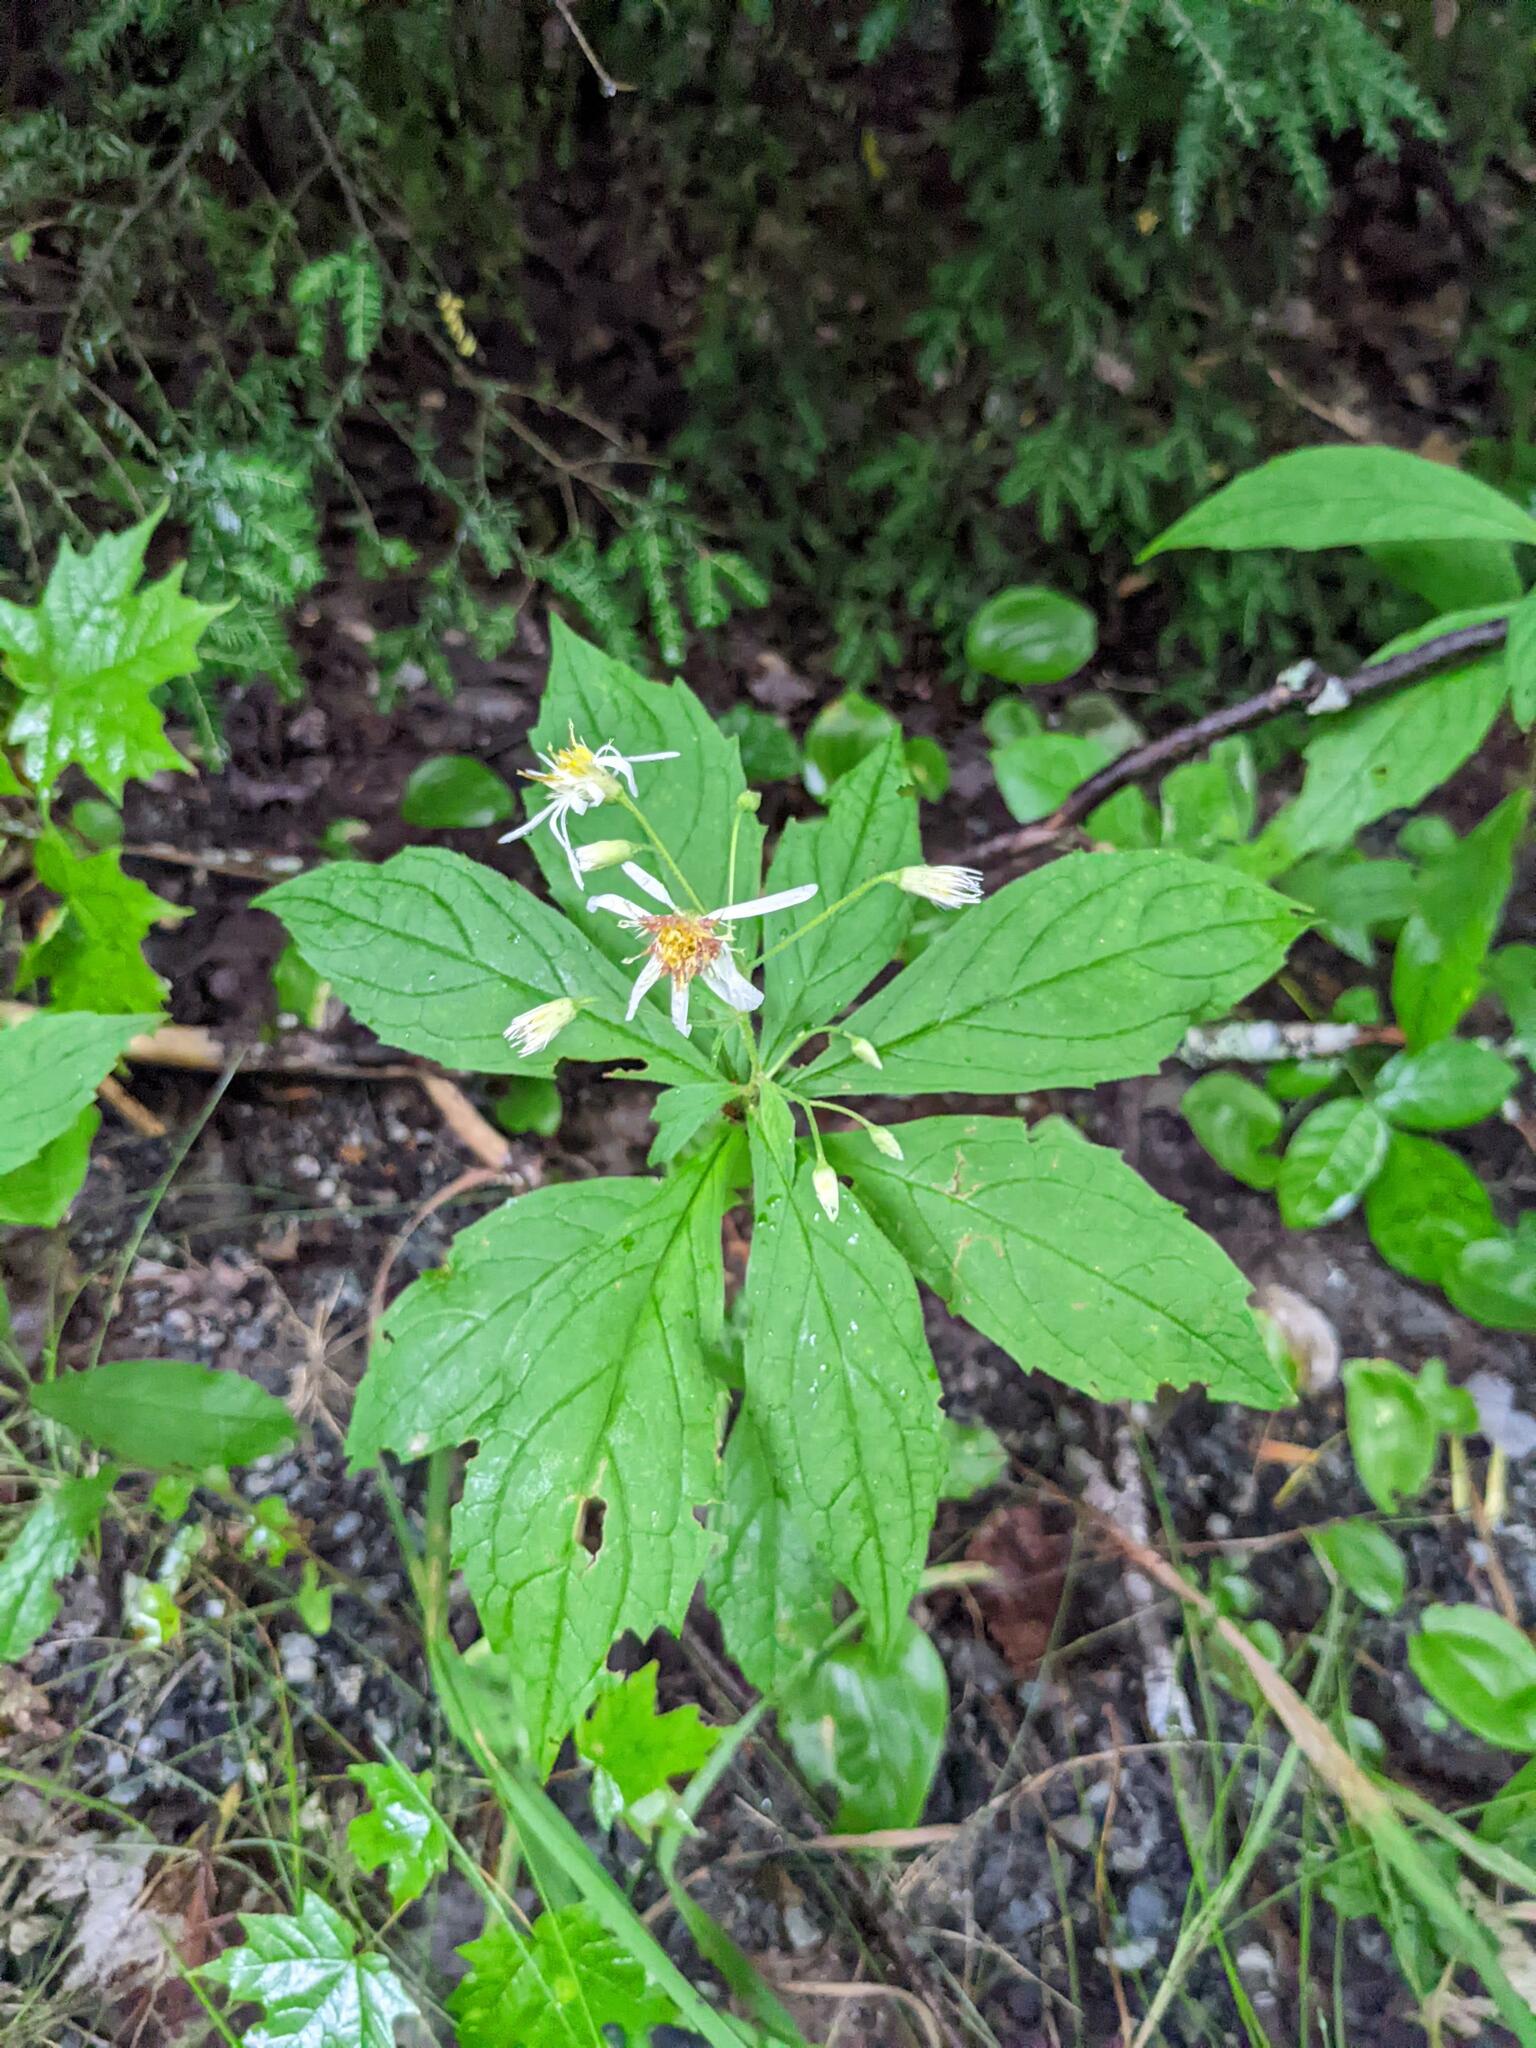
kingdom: Plantae
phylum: Tracheophyta
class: Magnoliopsida
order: Asterales
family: Asteraceae
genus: Oclemena
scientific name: Oclemena acuminata
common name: Mountain aster
